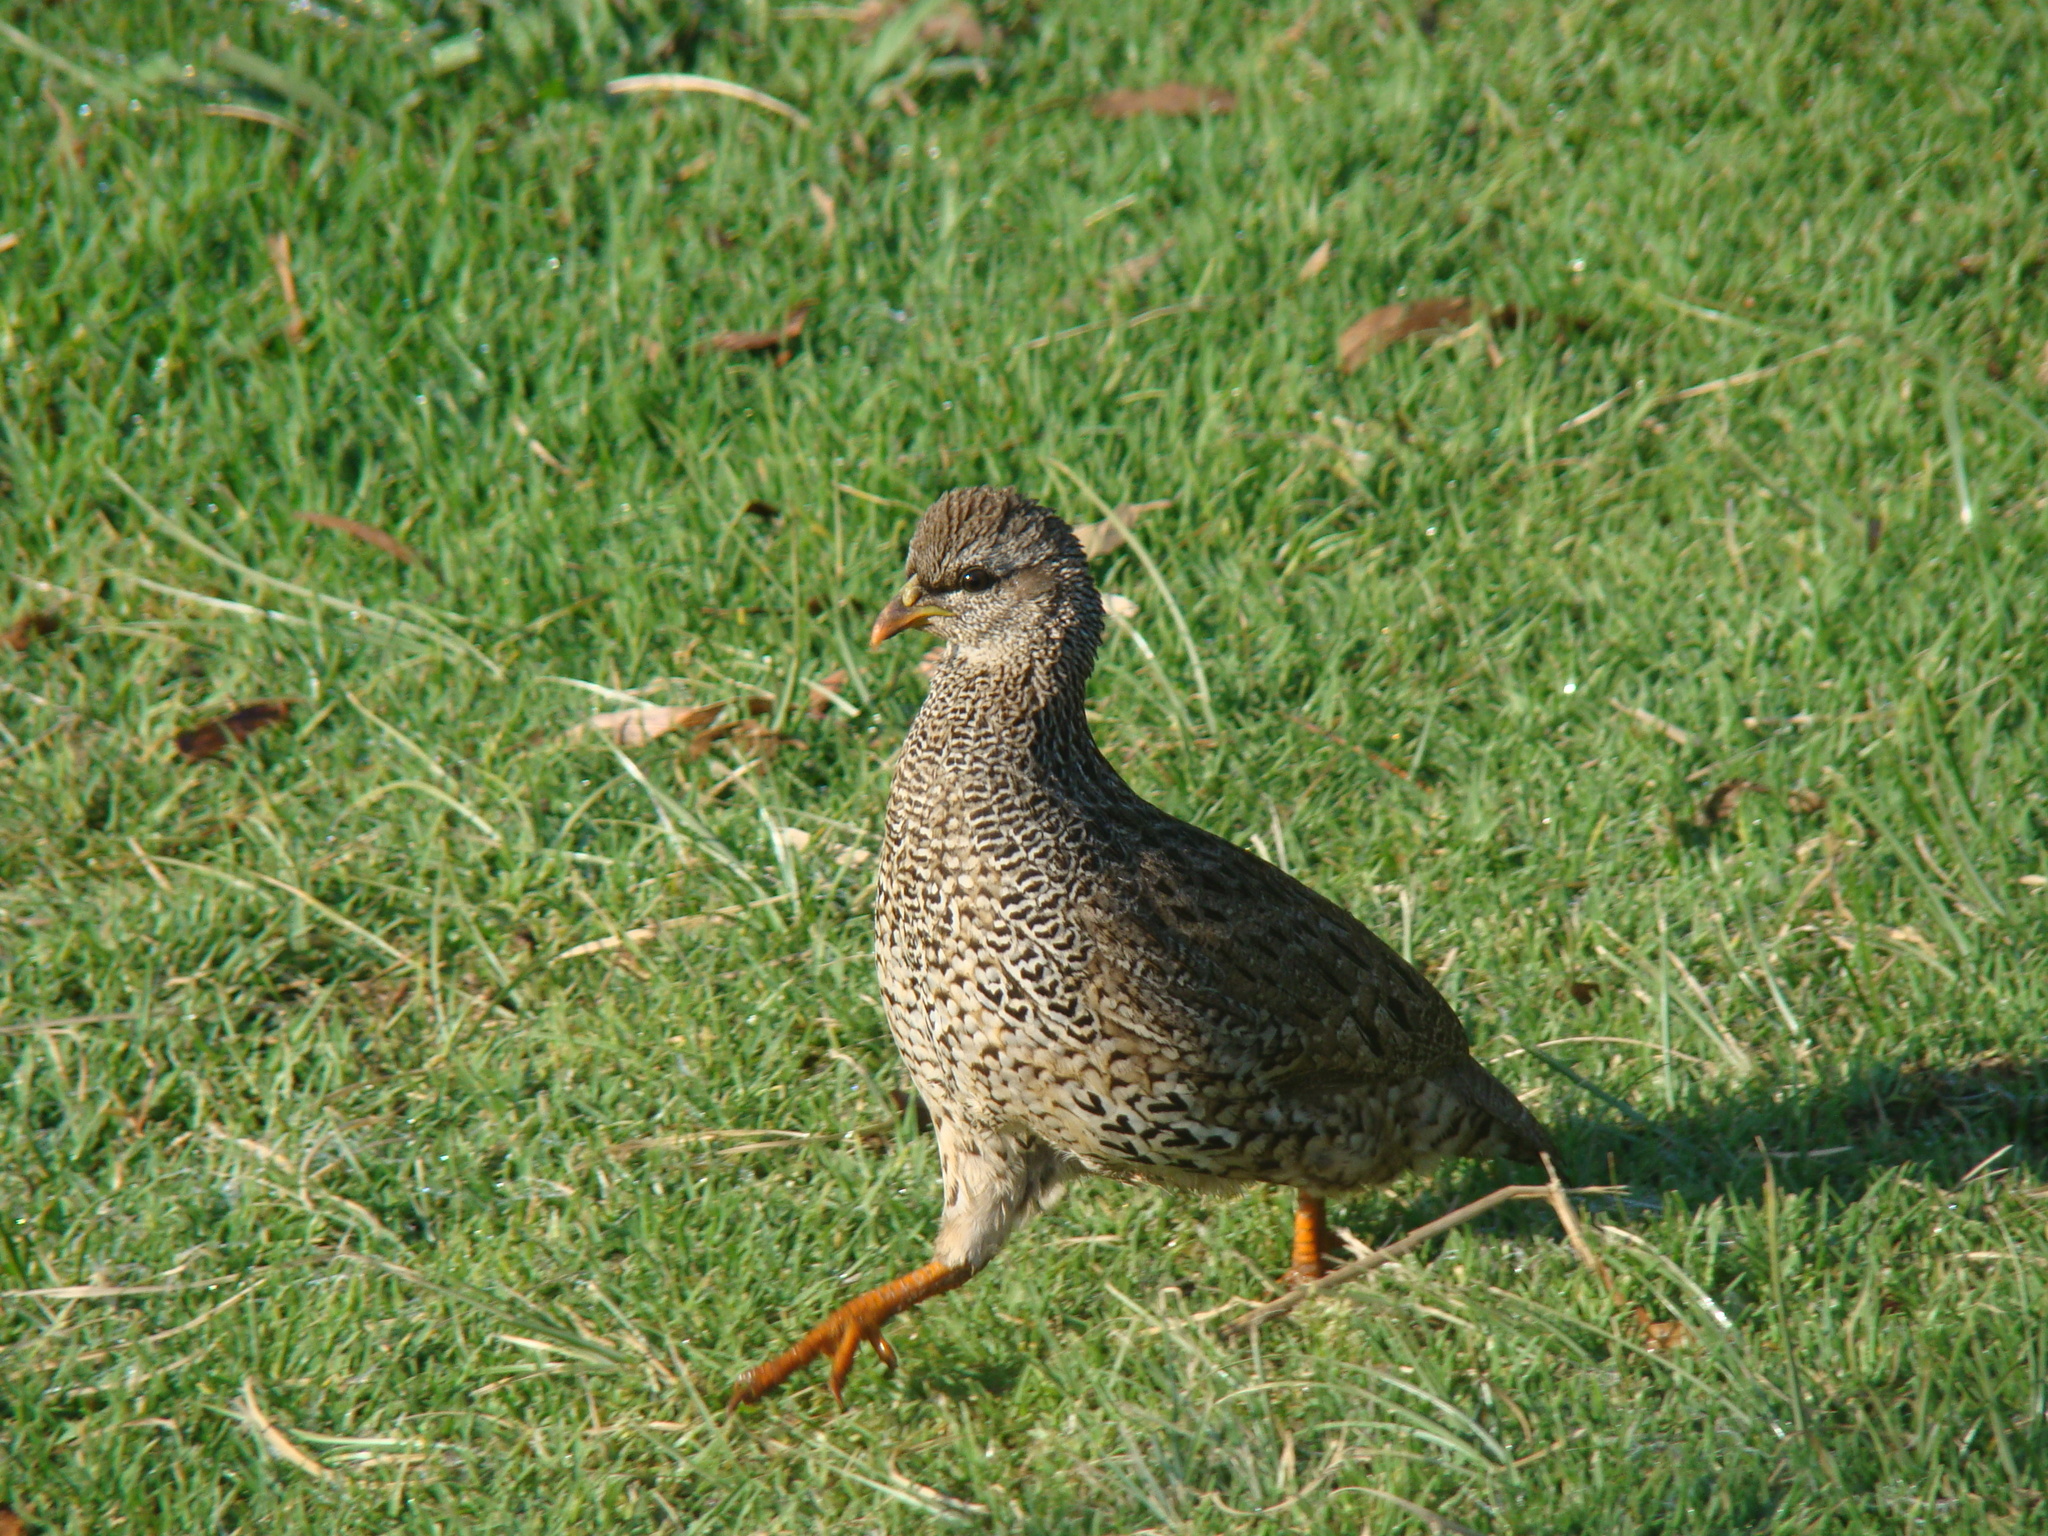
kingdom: Animalia
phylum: Chordata
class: Aves
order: Galliformes
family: Phasianidae
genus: Pternistis
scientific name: Pternistis natalensis
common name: Natal spurfowl
